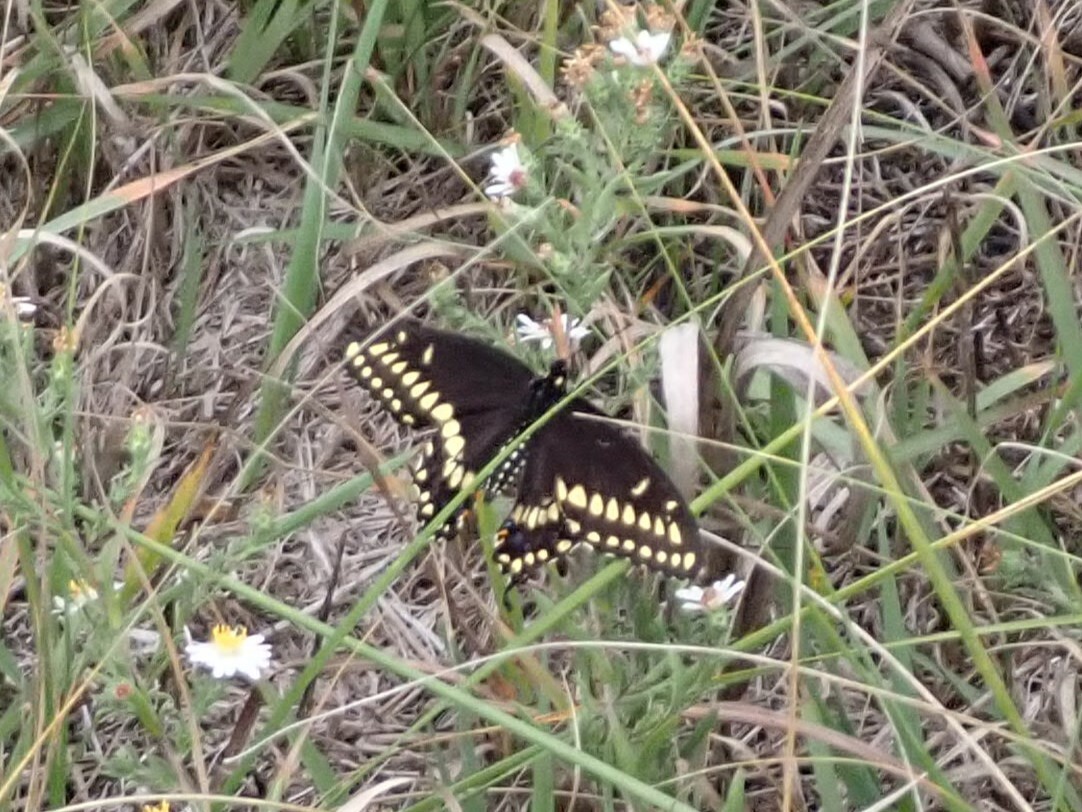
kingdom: Animalia
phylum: Arthropoda
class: Insecta
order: Lepidoptera
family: Papilionidae
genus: Papilio
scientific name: Papilio polyxenes
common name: Black swallowtail
